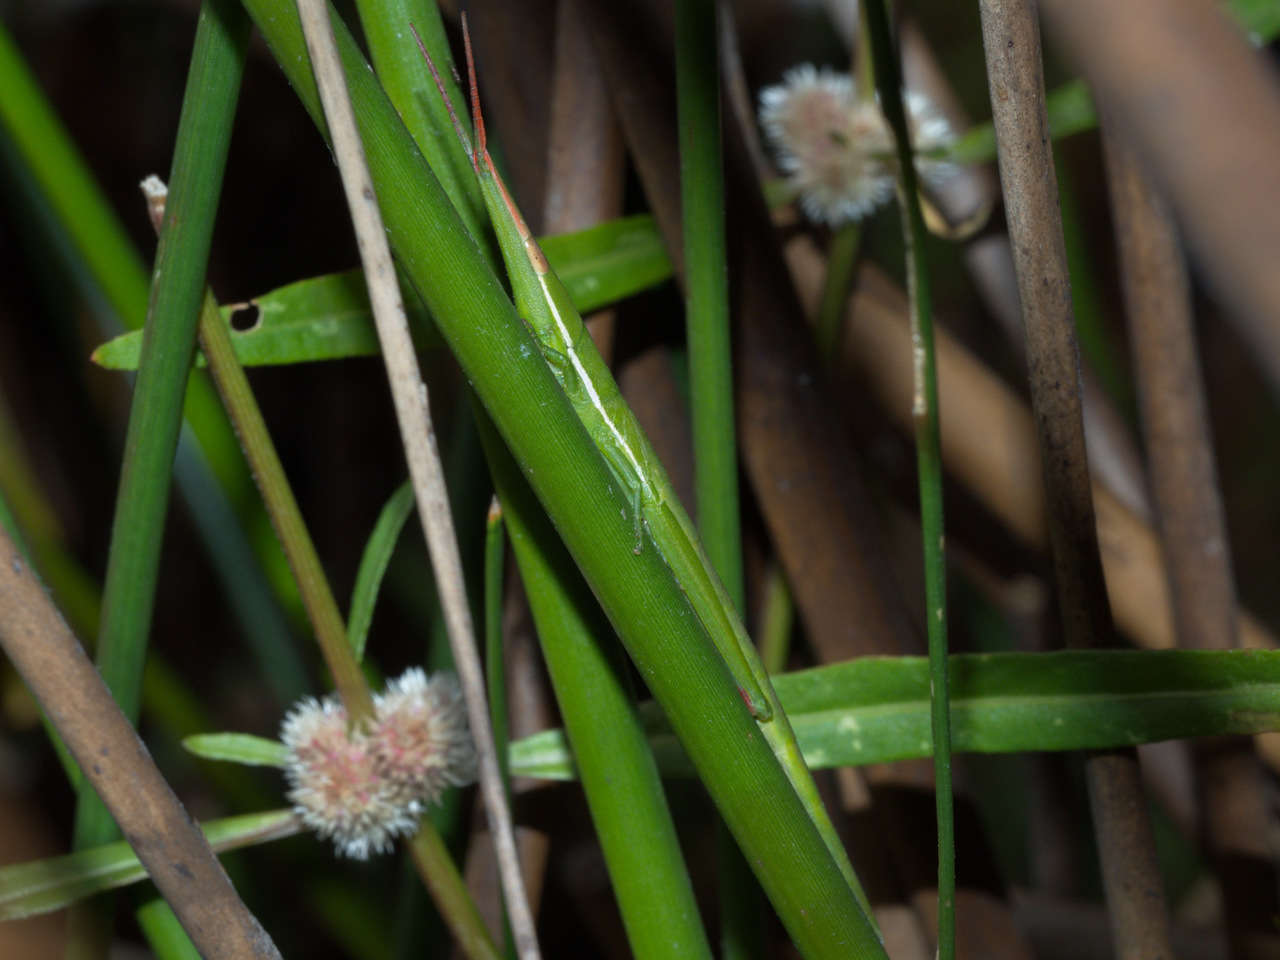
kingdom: Animalia
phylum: Arthropoda
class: Insecta
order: Orthoptera
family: Pyrgomorphidae
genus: Psednura
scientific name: Psednura pedestris
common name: Common psednura
